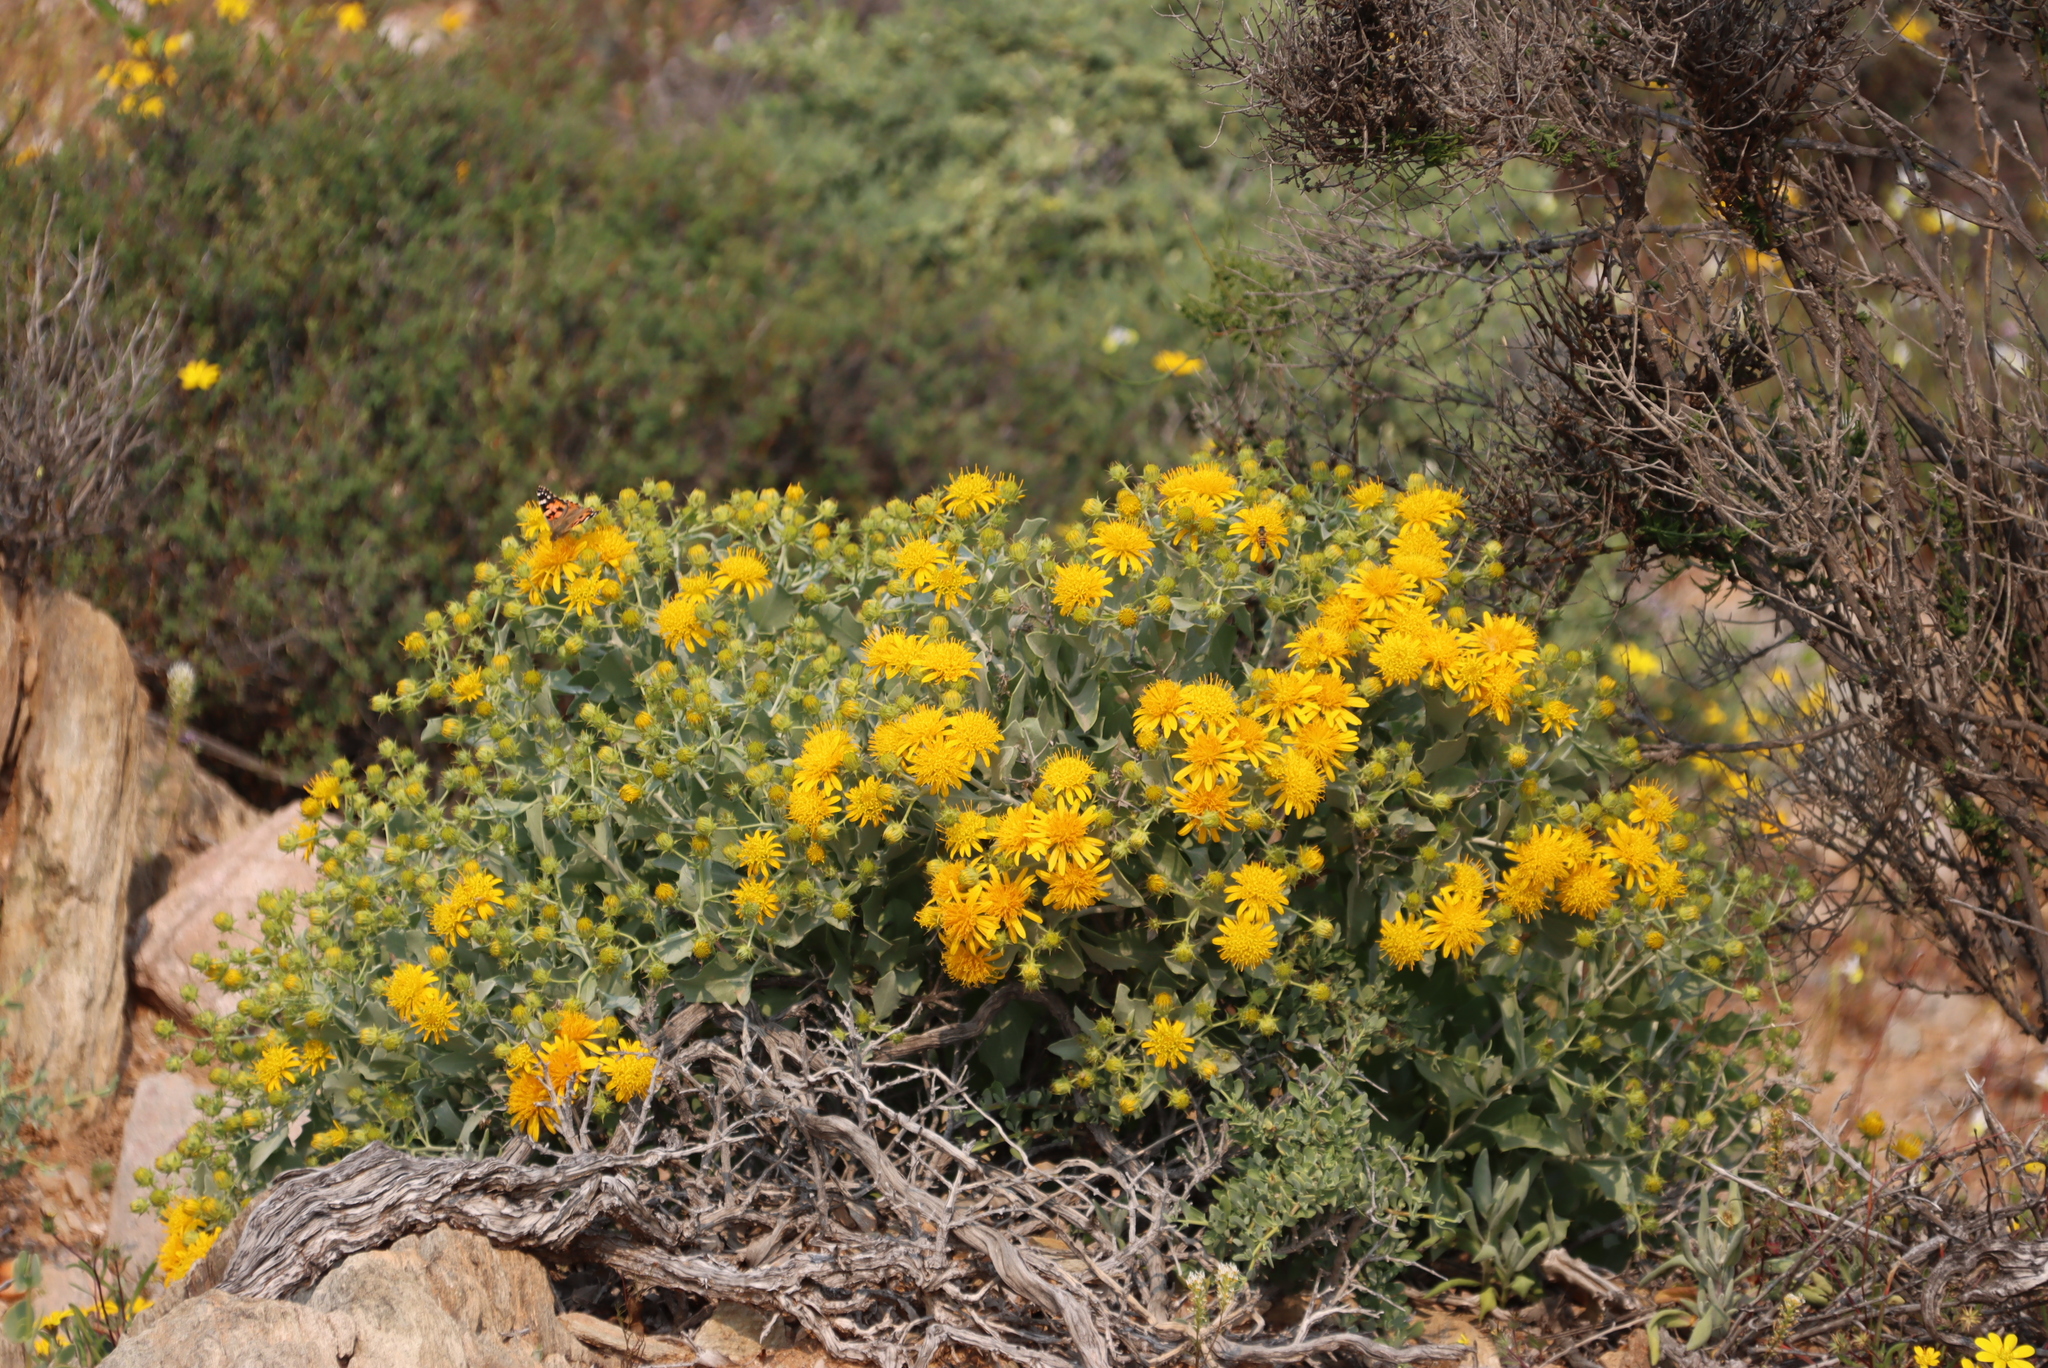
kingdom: Animalia
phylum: Arthropoda
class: Insecta
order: Lepidoptera
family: Nymphalidae
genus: Vanessa
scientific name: Vanessa cardui
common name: Painted lady
